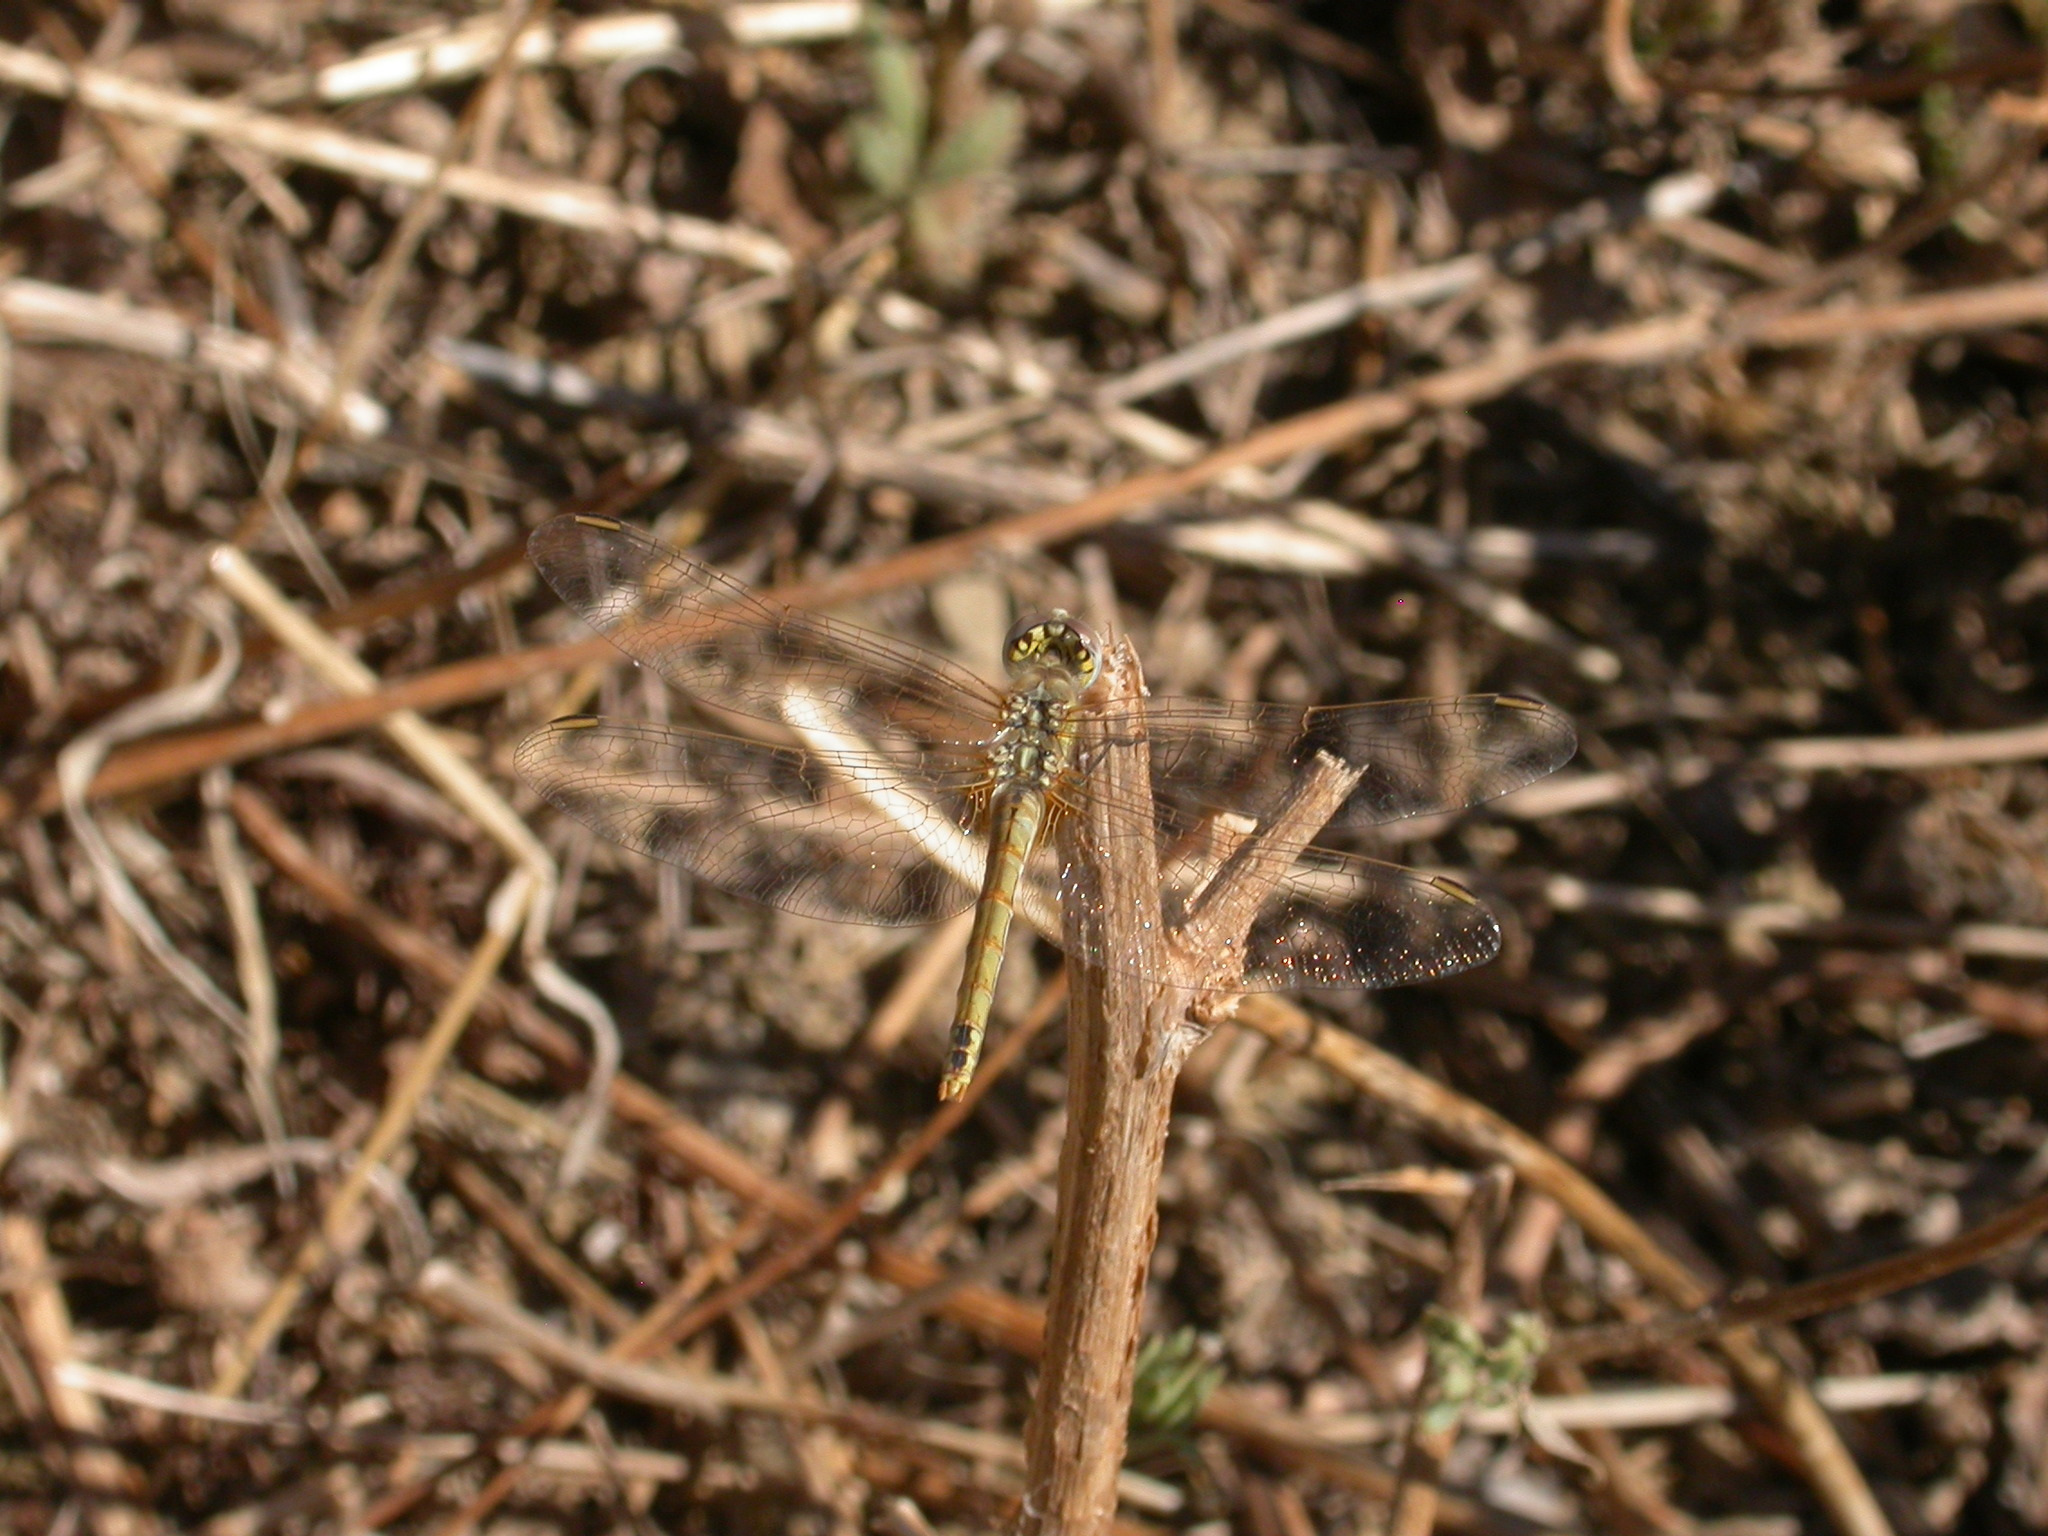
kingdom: Animalia
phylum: Arthropoda
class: Insecta
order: Odonata
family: Libellulidae
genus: Sympetrum
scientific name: Sympetrum fonscolombii
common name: Red-veined darter
